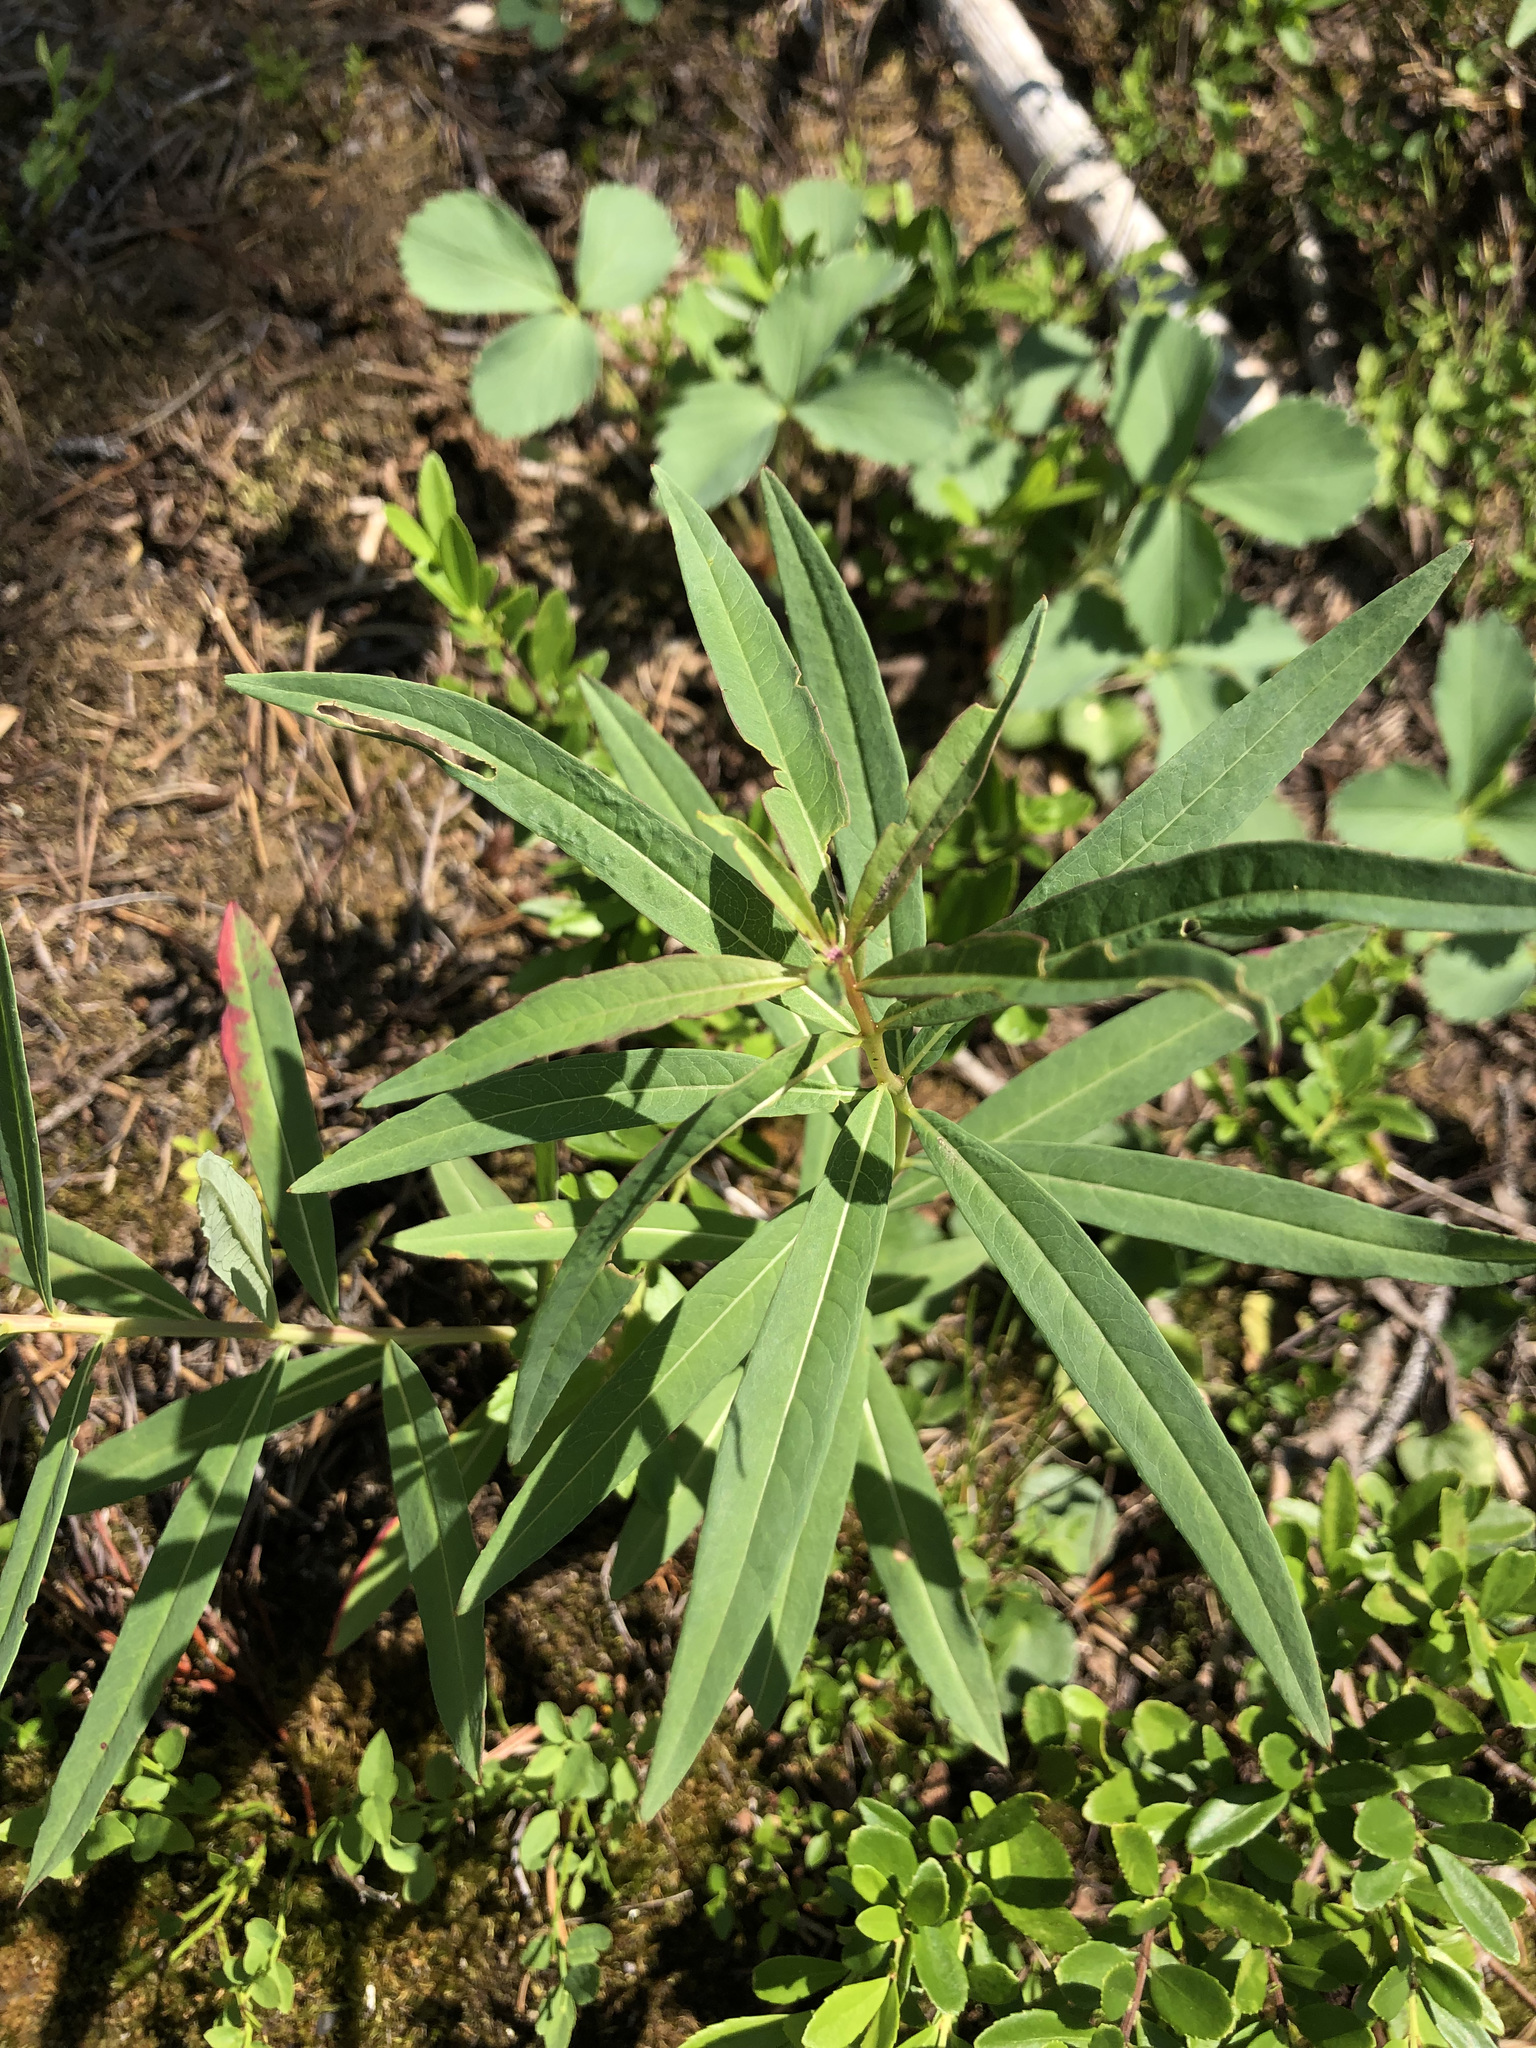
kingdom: Plantae
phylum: Tracheophyta
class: Magnoliopsida
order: Myrtales
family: Onagraceae
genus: Chamaenerion
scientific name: Chamaenerion angustifolium
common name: Fireweed
